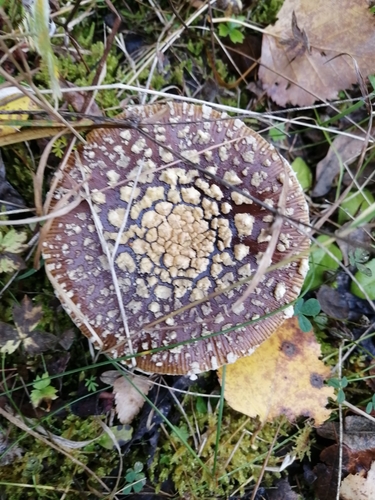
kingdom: Fungi
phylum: Basidiomycota
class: Agaricomycetes
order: Agaricales
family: Amanitaceae
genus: Amanita
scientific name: Amanita pantherina
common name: Panthercap
